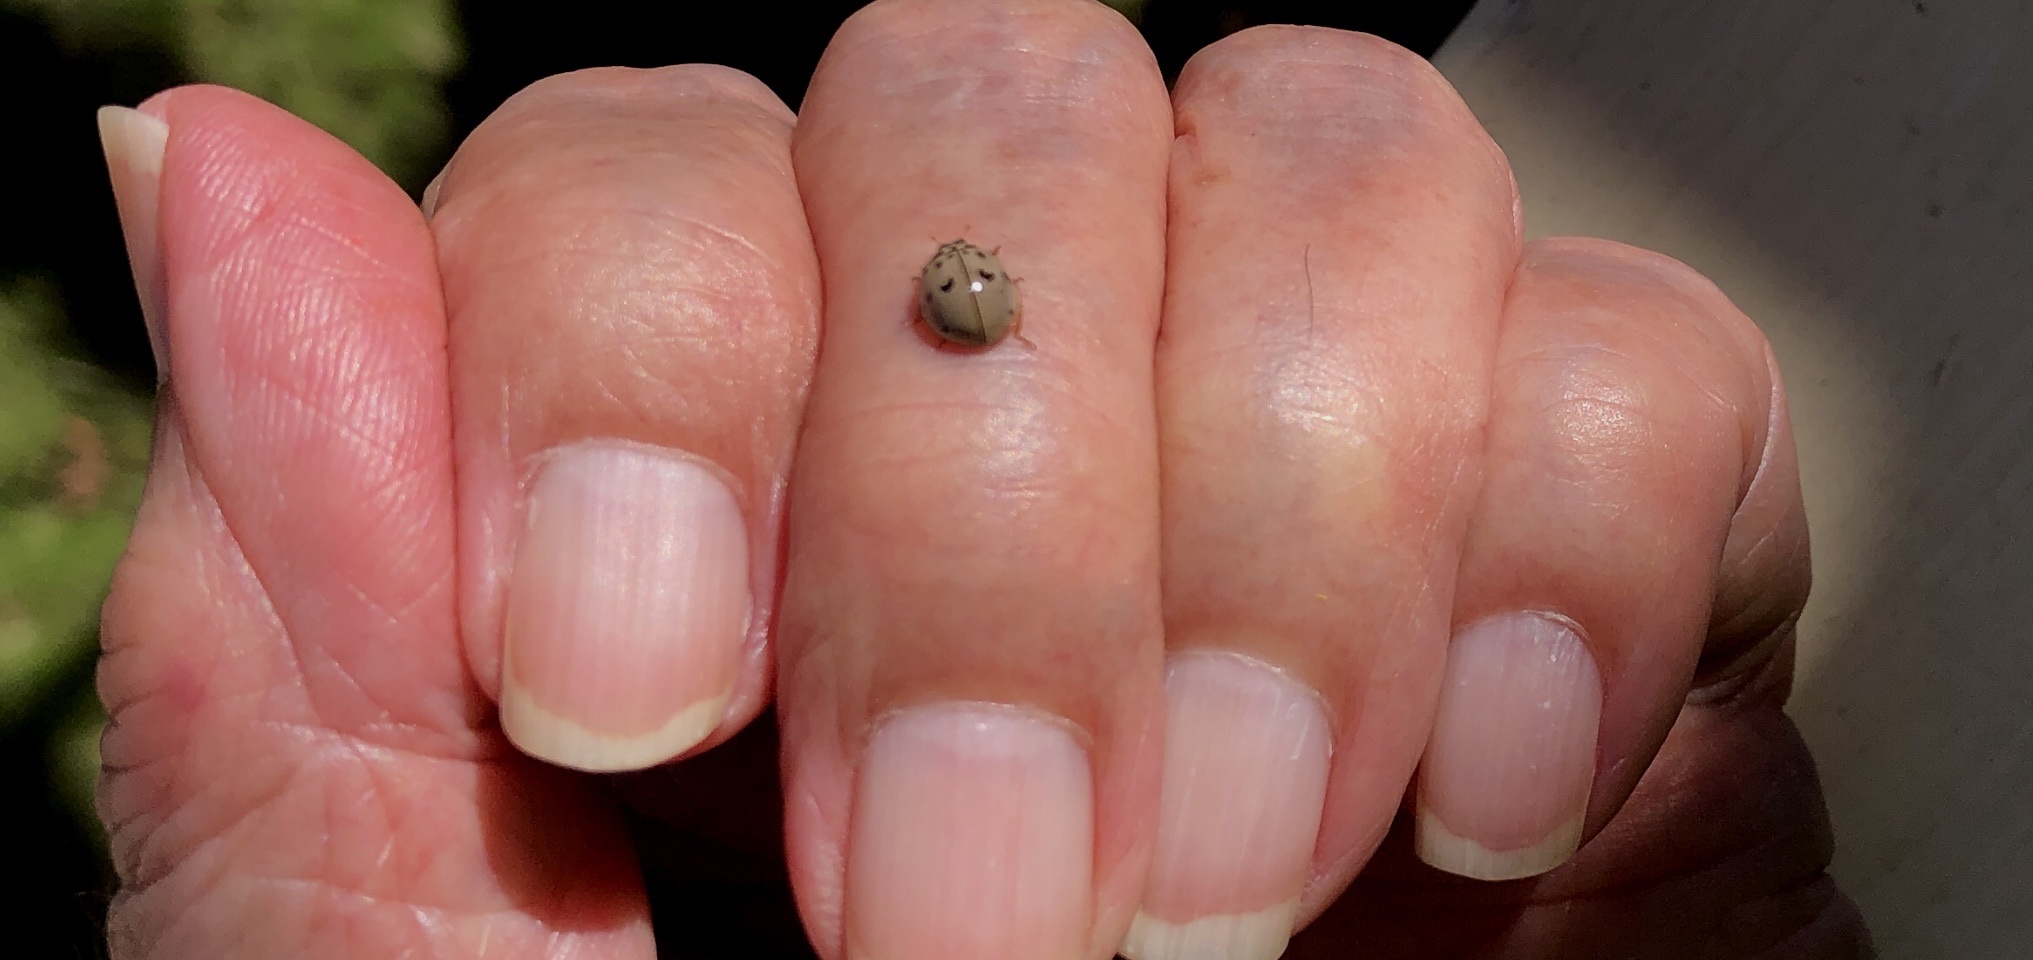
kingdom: Animalia
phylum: Arthropoda
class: Insecta
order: Coleoptera
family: Coccinellidae
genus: Olla
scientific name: Olla v-nigrum
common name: Ashy gray lady beetle
